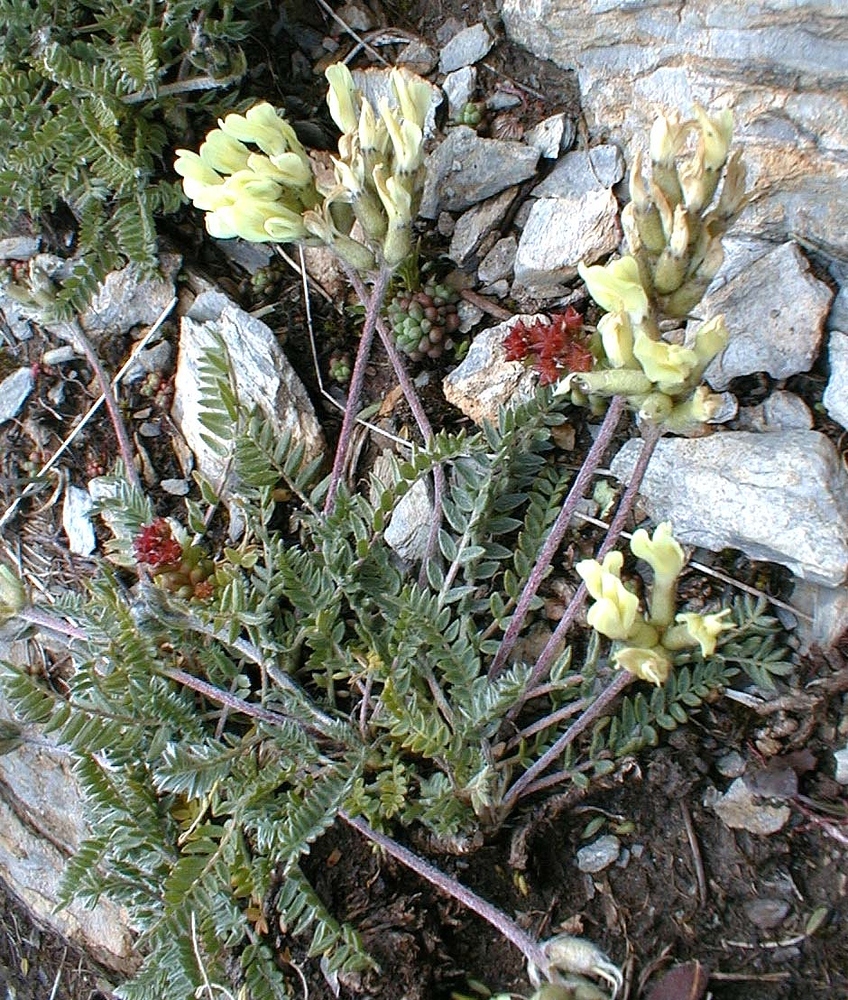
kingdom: Plantae
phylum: Tracheophyta
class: Magnoliopsida
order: Fabales
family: Fabaceae
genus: Oxytropis
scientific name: Oxytropis campestris
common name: Field locoweed
